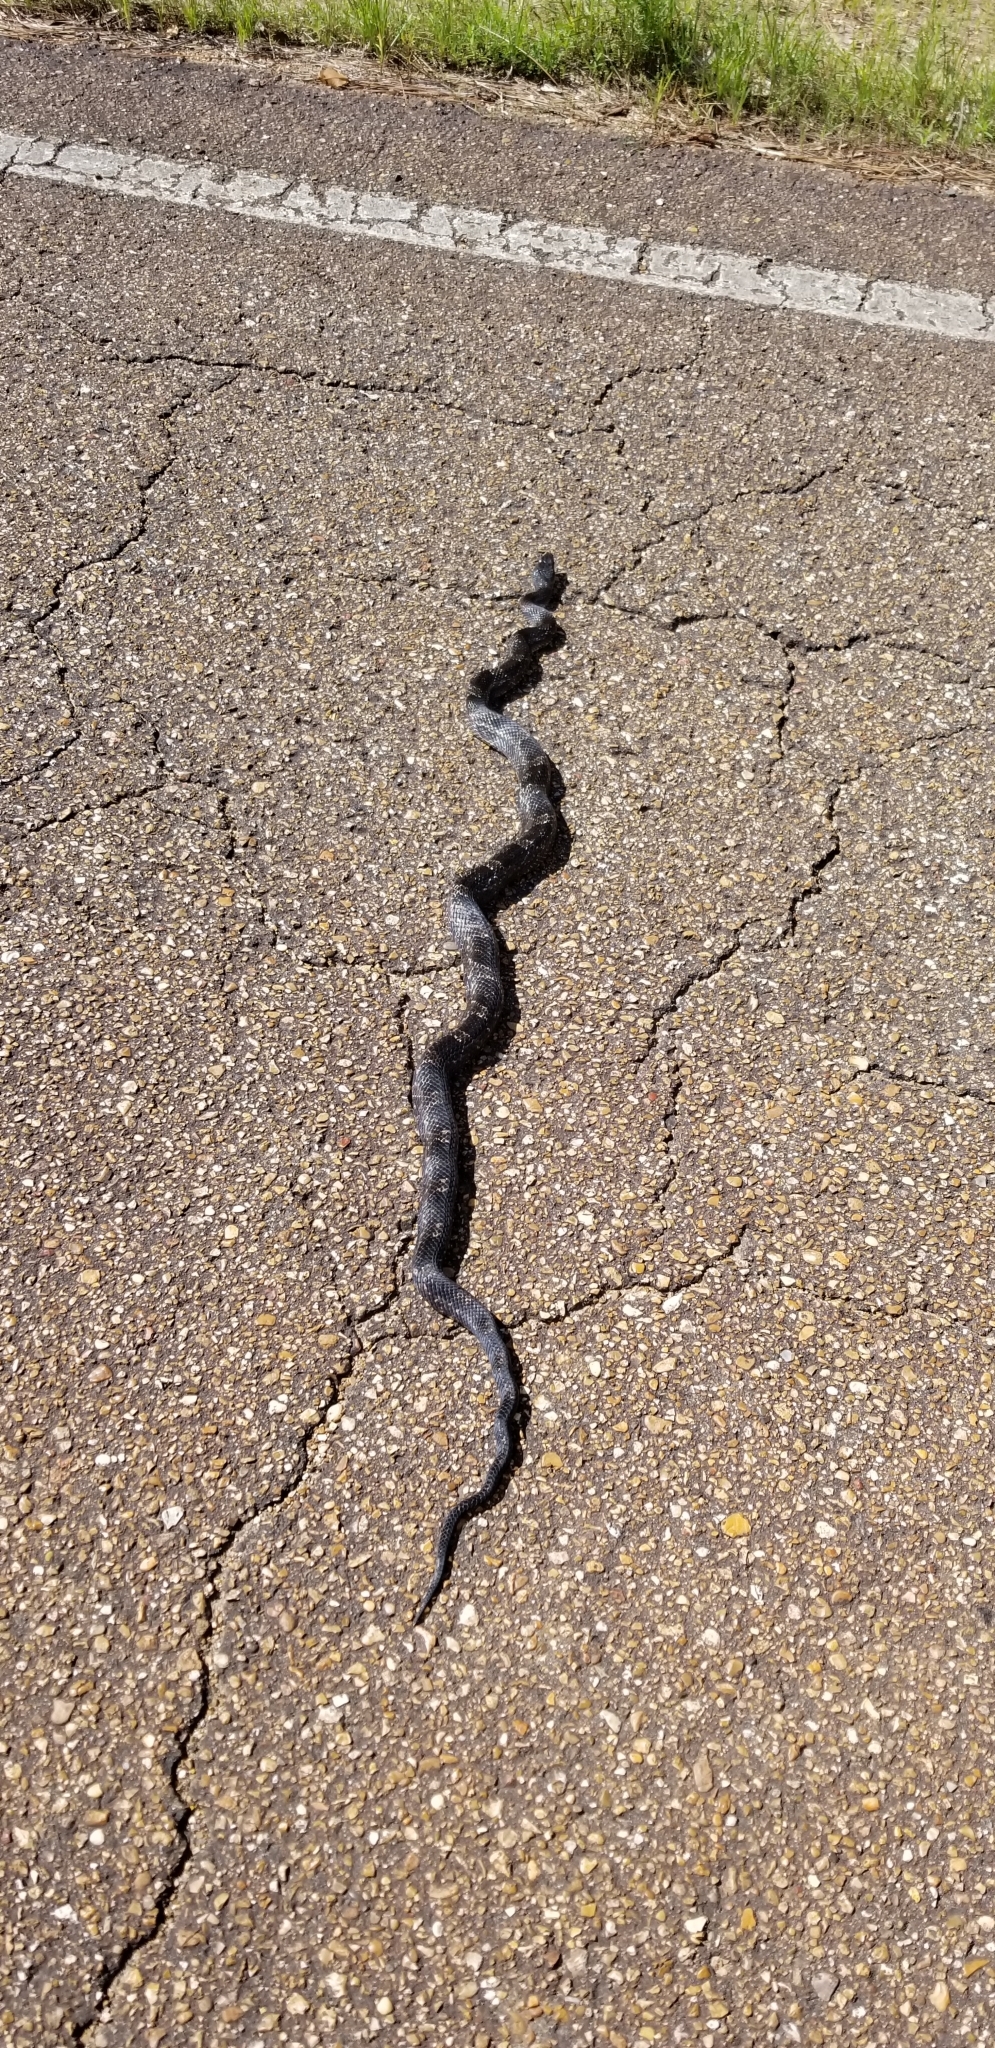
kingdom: Animalia
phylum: Chordata
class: Squamata
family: Colubridae
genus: Pantherophis
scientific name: Pantherophis obsoletus
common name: Black rat snake
